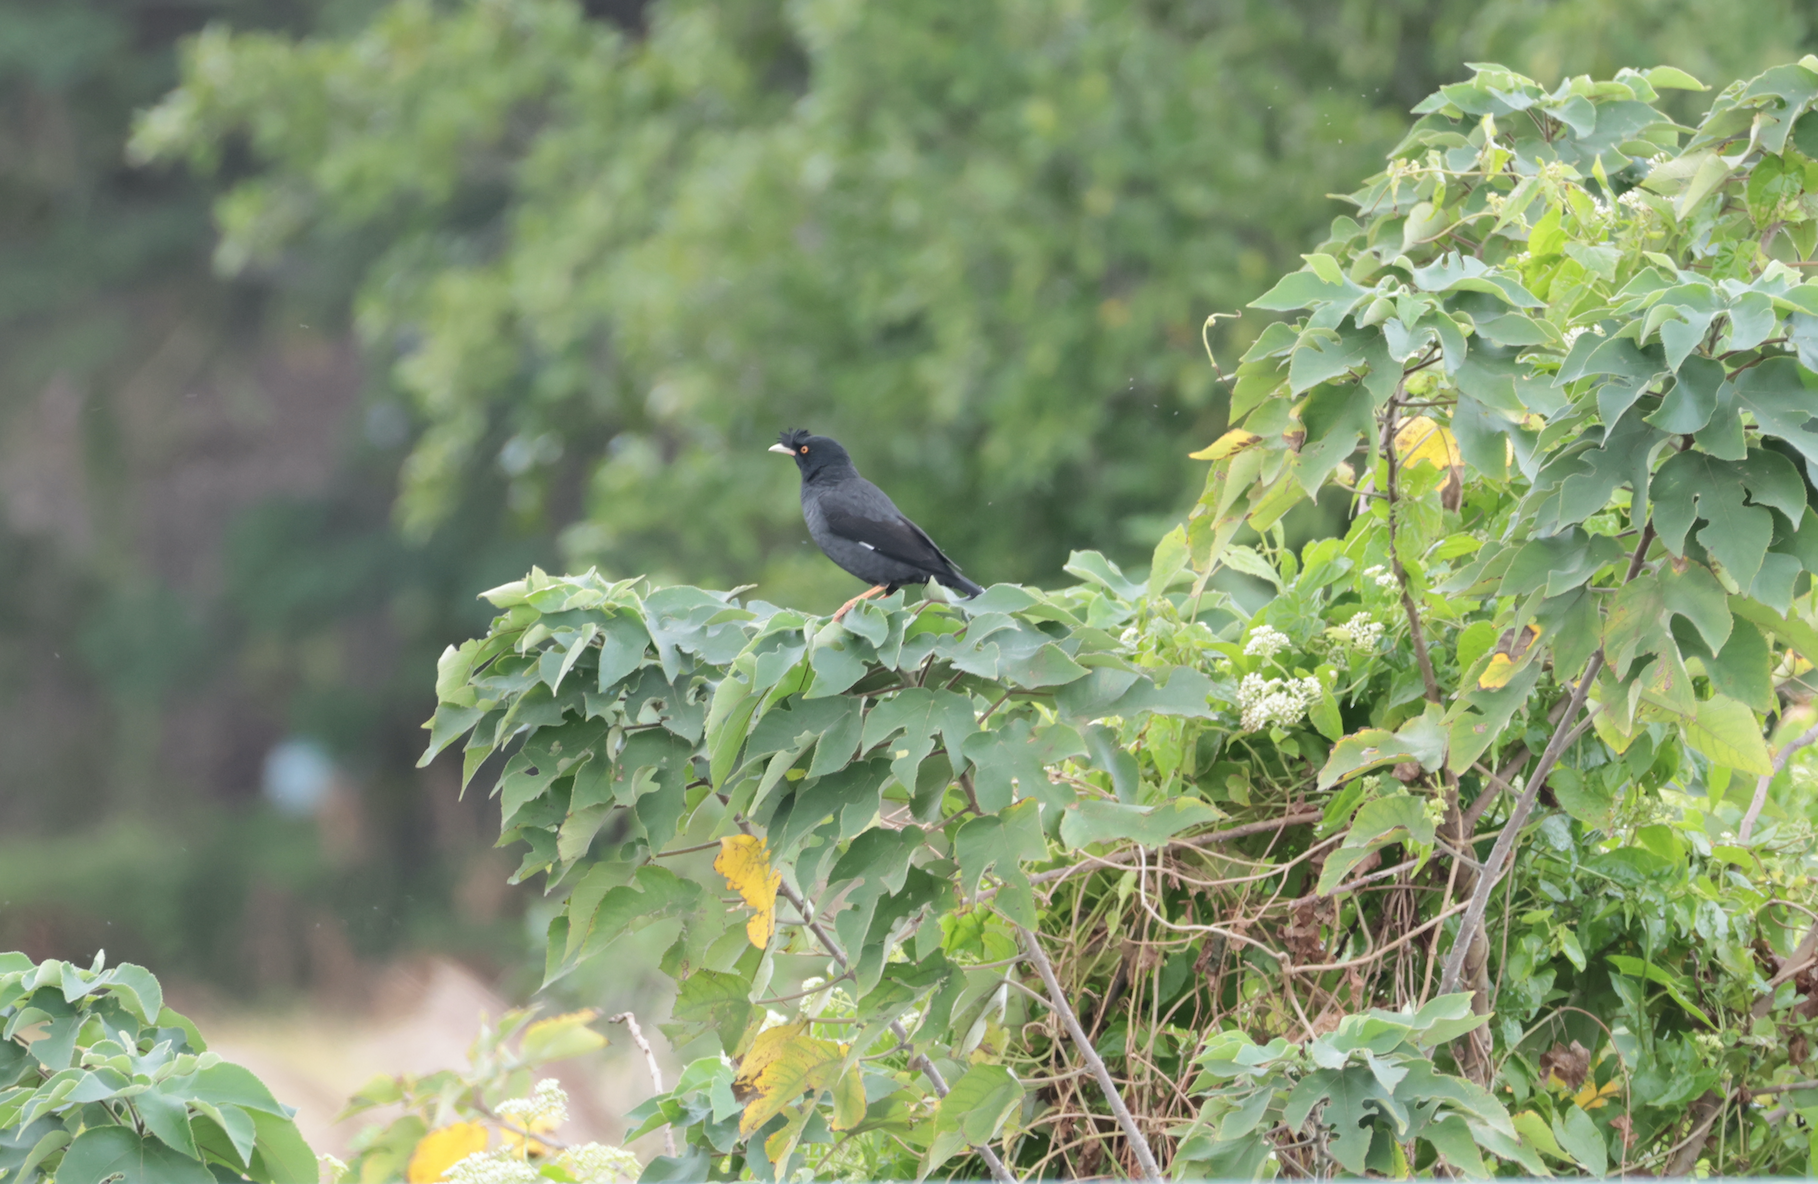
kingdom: Animalia
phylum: Chordata
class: Aves
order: Passeriformes
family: Sturnidae
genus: Acridotheres
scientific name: Acridotheres cristatellus
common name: Crested myna
